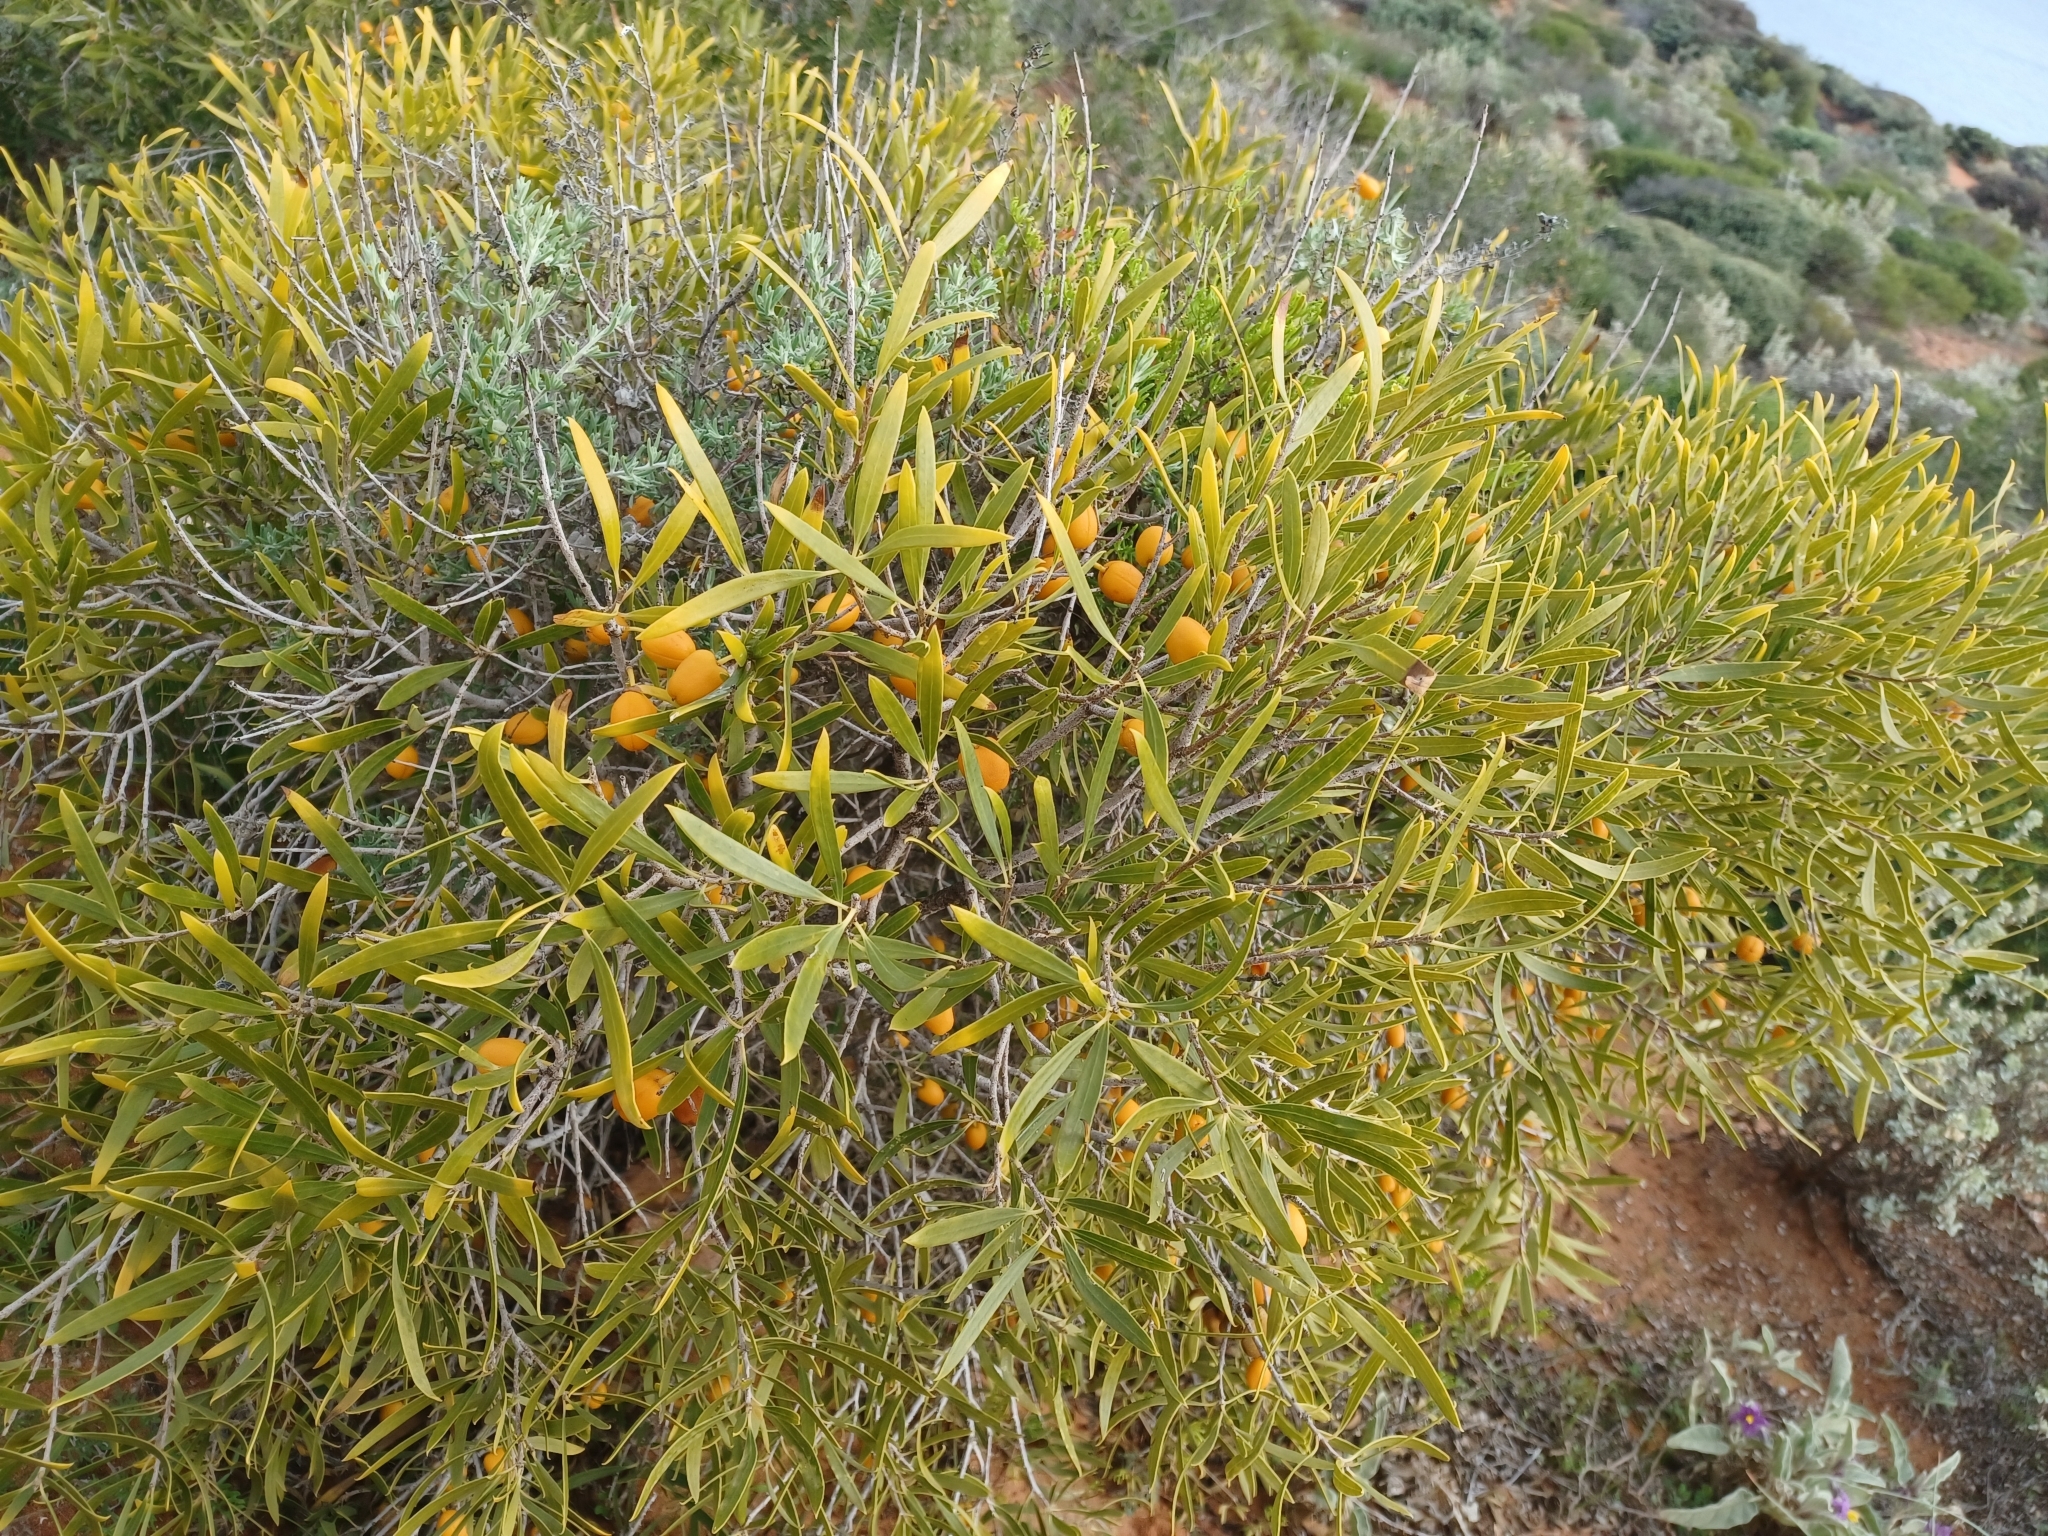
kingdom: Plantae
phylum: Tracheophyta
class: Magnoliopsida
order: Apiales
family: Pittosporaceae
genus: Pittosporum
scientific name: Pittosporum angustifolium
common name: Weeping pittosporum
